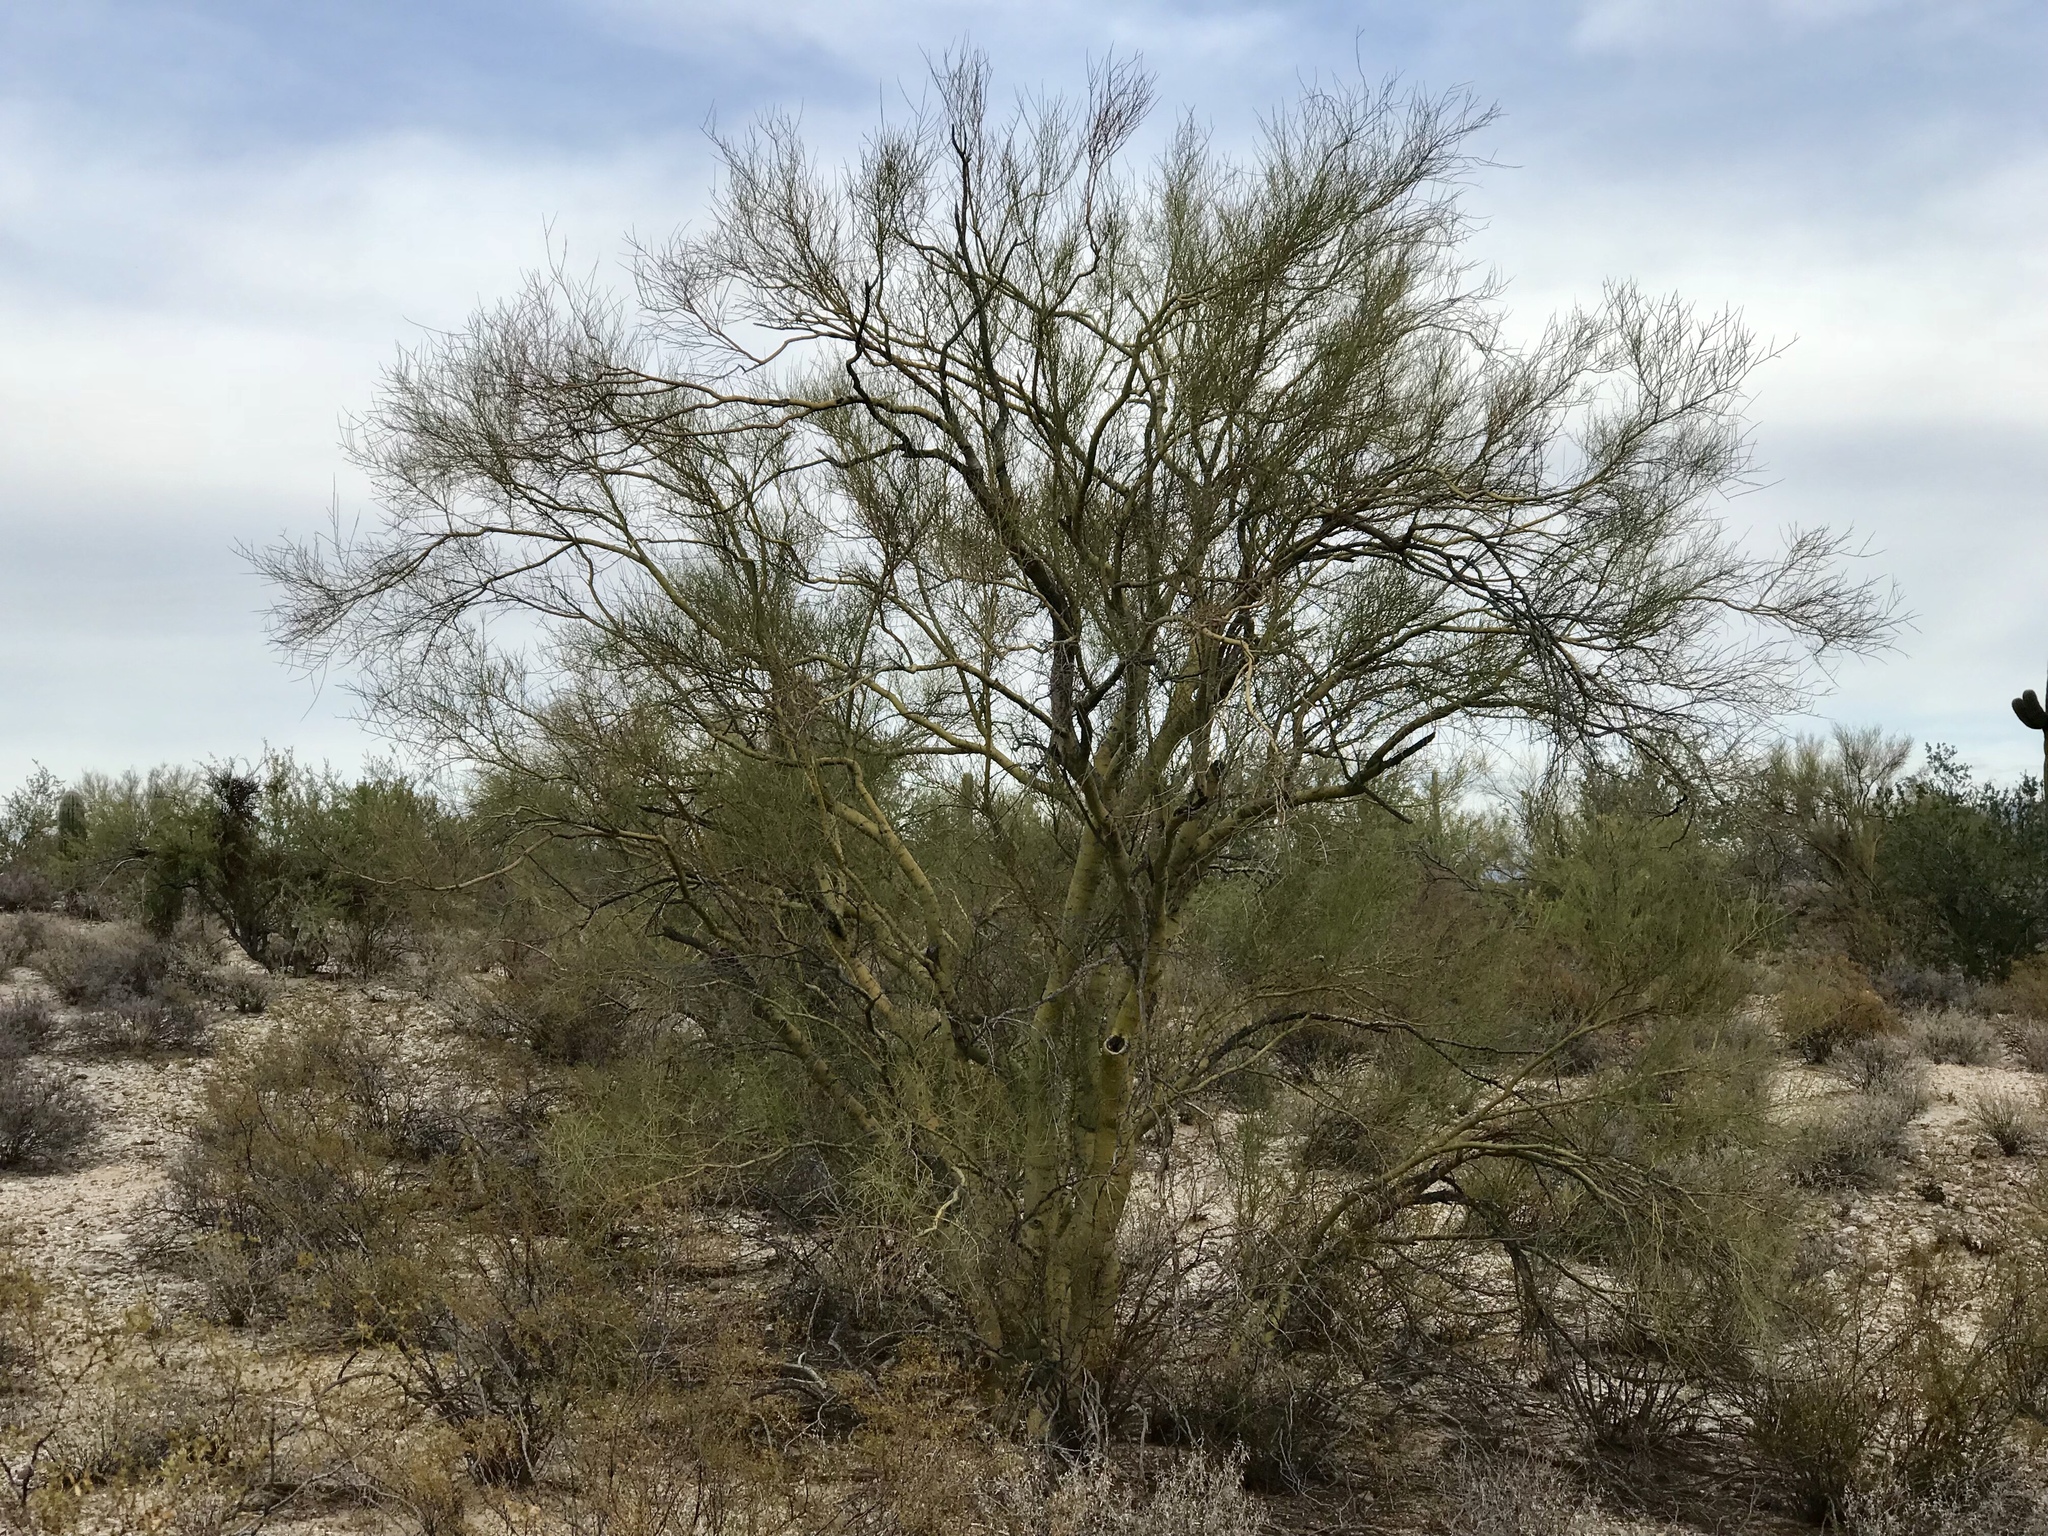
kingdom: Plantae
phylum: Tracheophyta
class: Magnoliopsida
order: Fabales
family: Fabaceae
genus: Parkinsonia
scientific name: Parkinsonia microphylla
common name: Yellow paloverde
